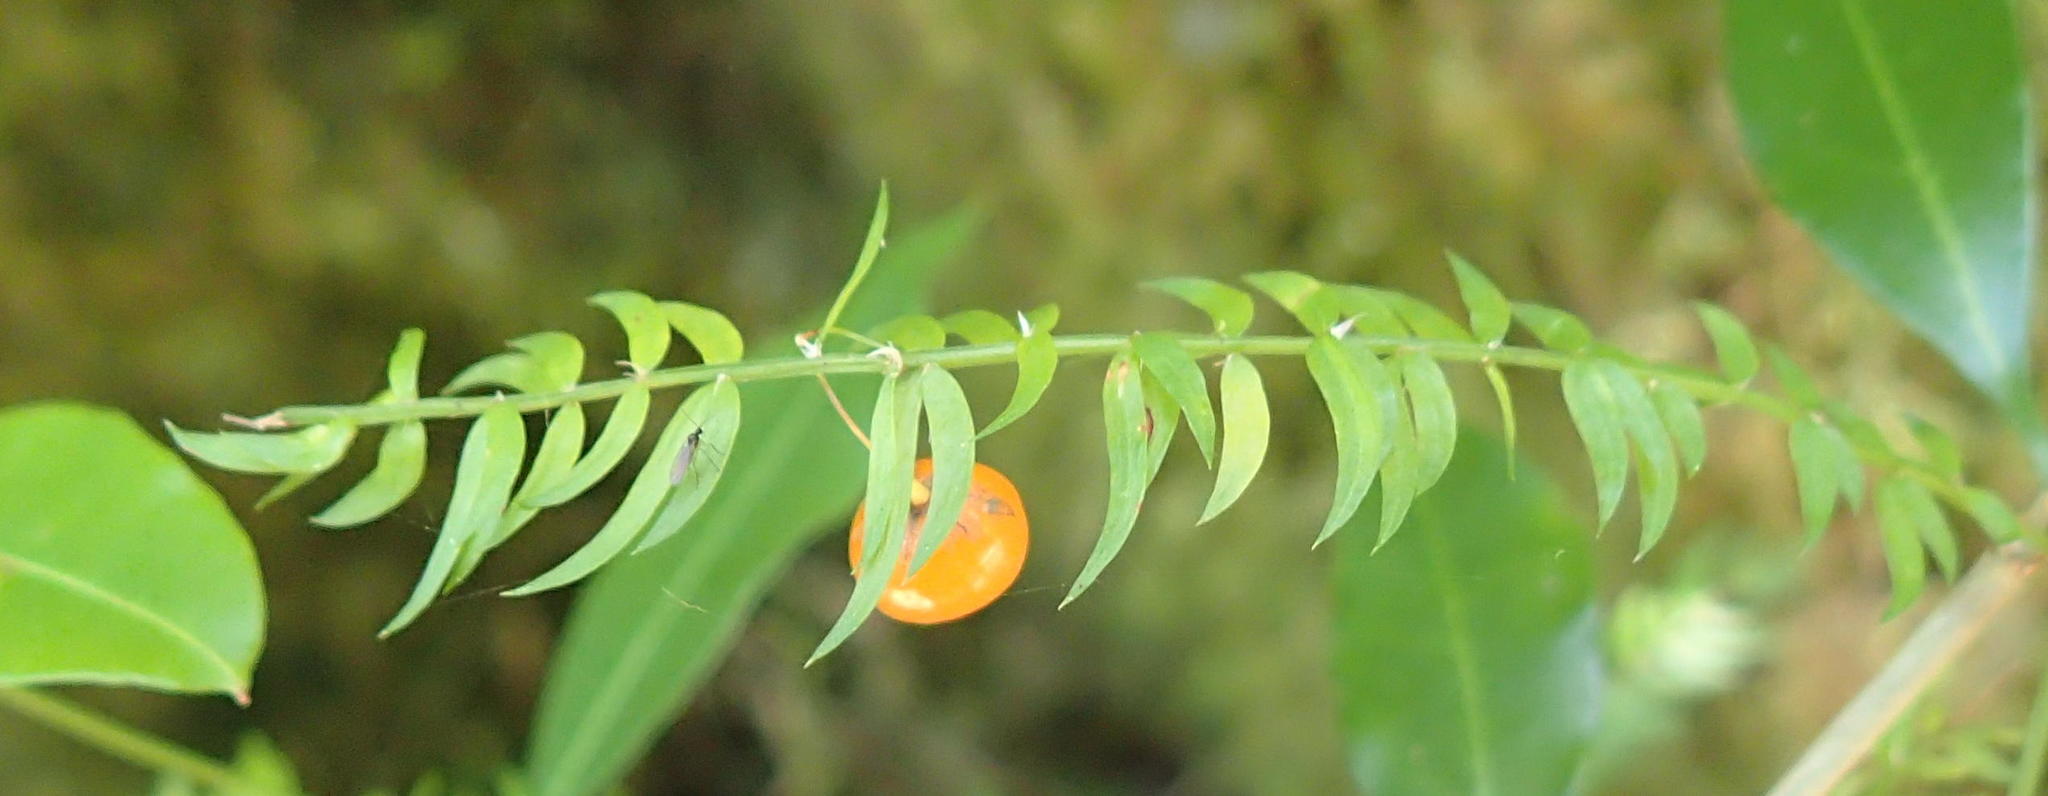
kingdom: Plantae
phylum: Tracheophyta
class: Liliopsida
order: Asparagales
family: Asparagaceae
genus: Asparagus
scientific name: Asparagus scandens
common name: Asparagus-fern
